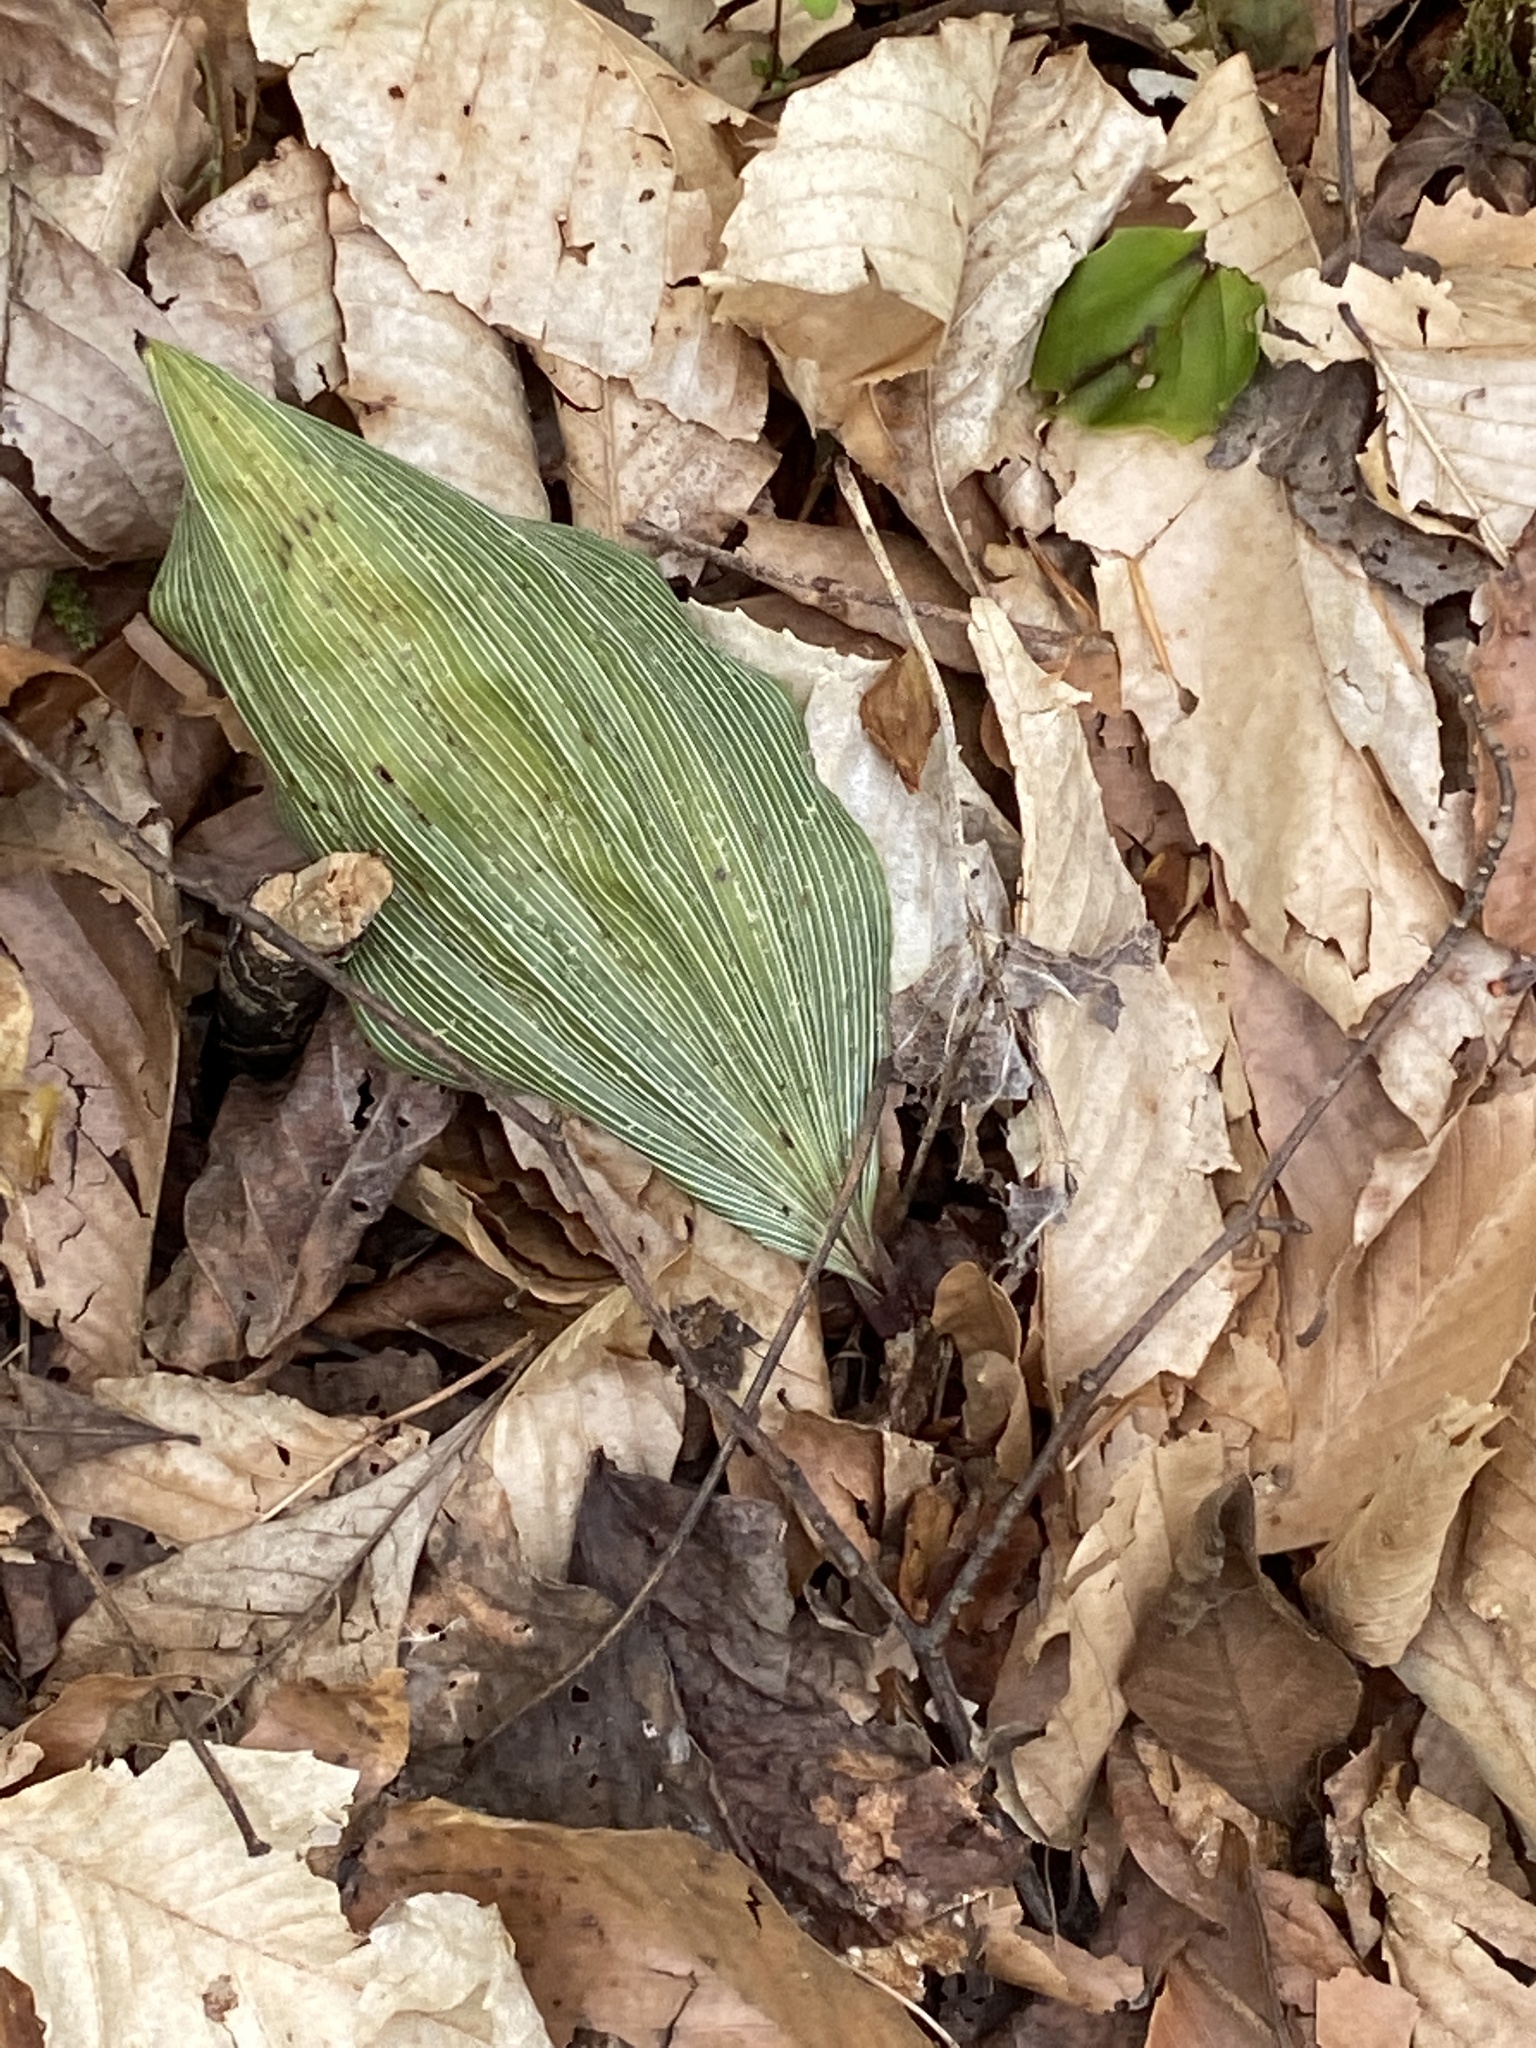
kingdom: Plantae
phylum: Tracheophyta
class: Liliopsida
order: Asparagales
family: Orchidaceae
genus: Aplectrum
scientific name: Aplectrum hyemale
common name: Adam-and-eve
